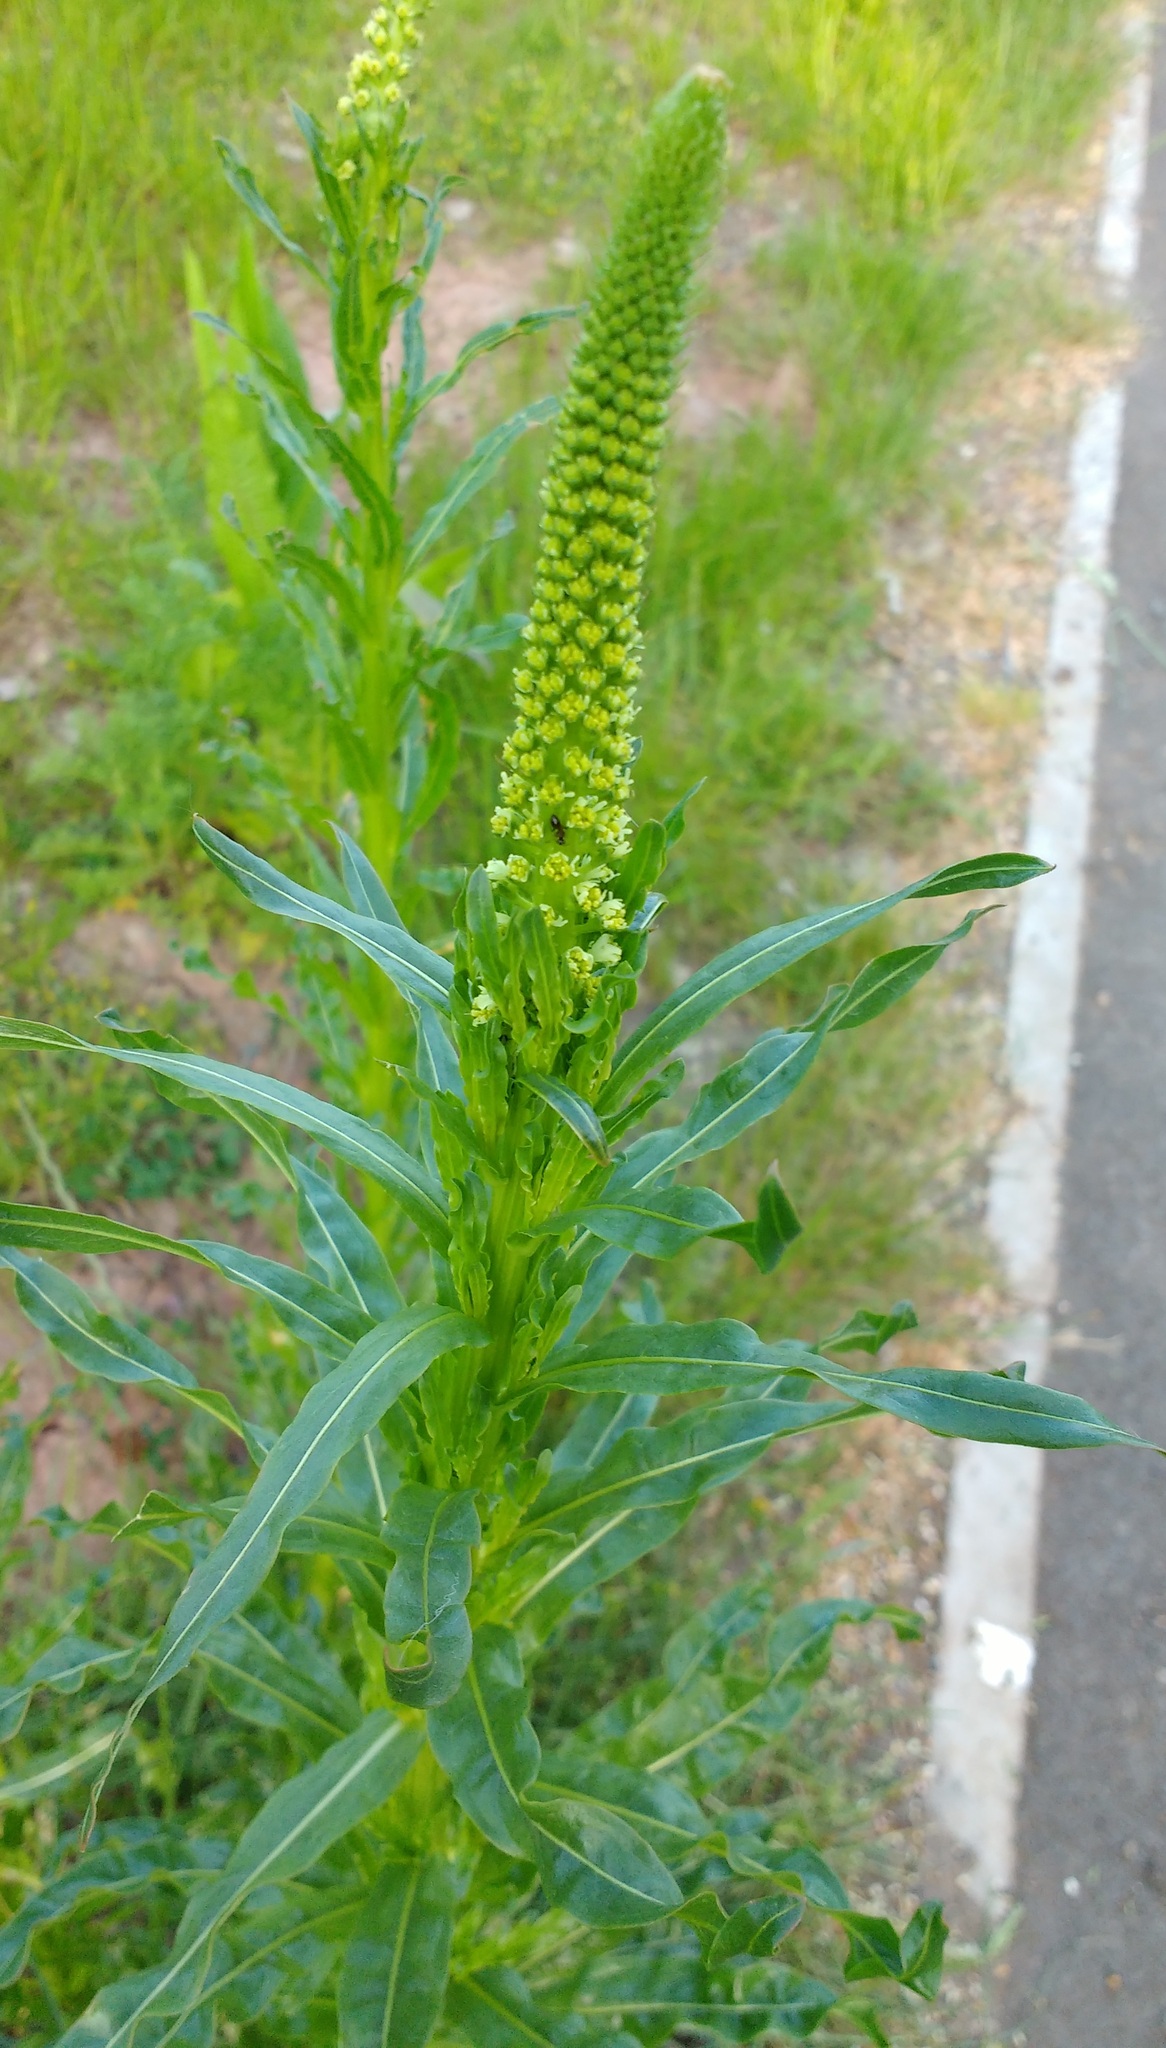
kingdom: Plantae
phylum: Tracheophyta
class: Magnoliopsida
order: Brassicales
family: Resedaceae
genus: Reseda
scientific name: Reseda luteola
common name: Weld
